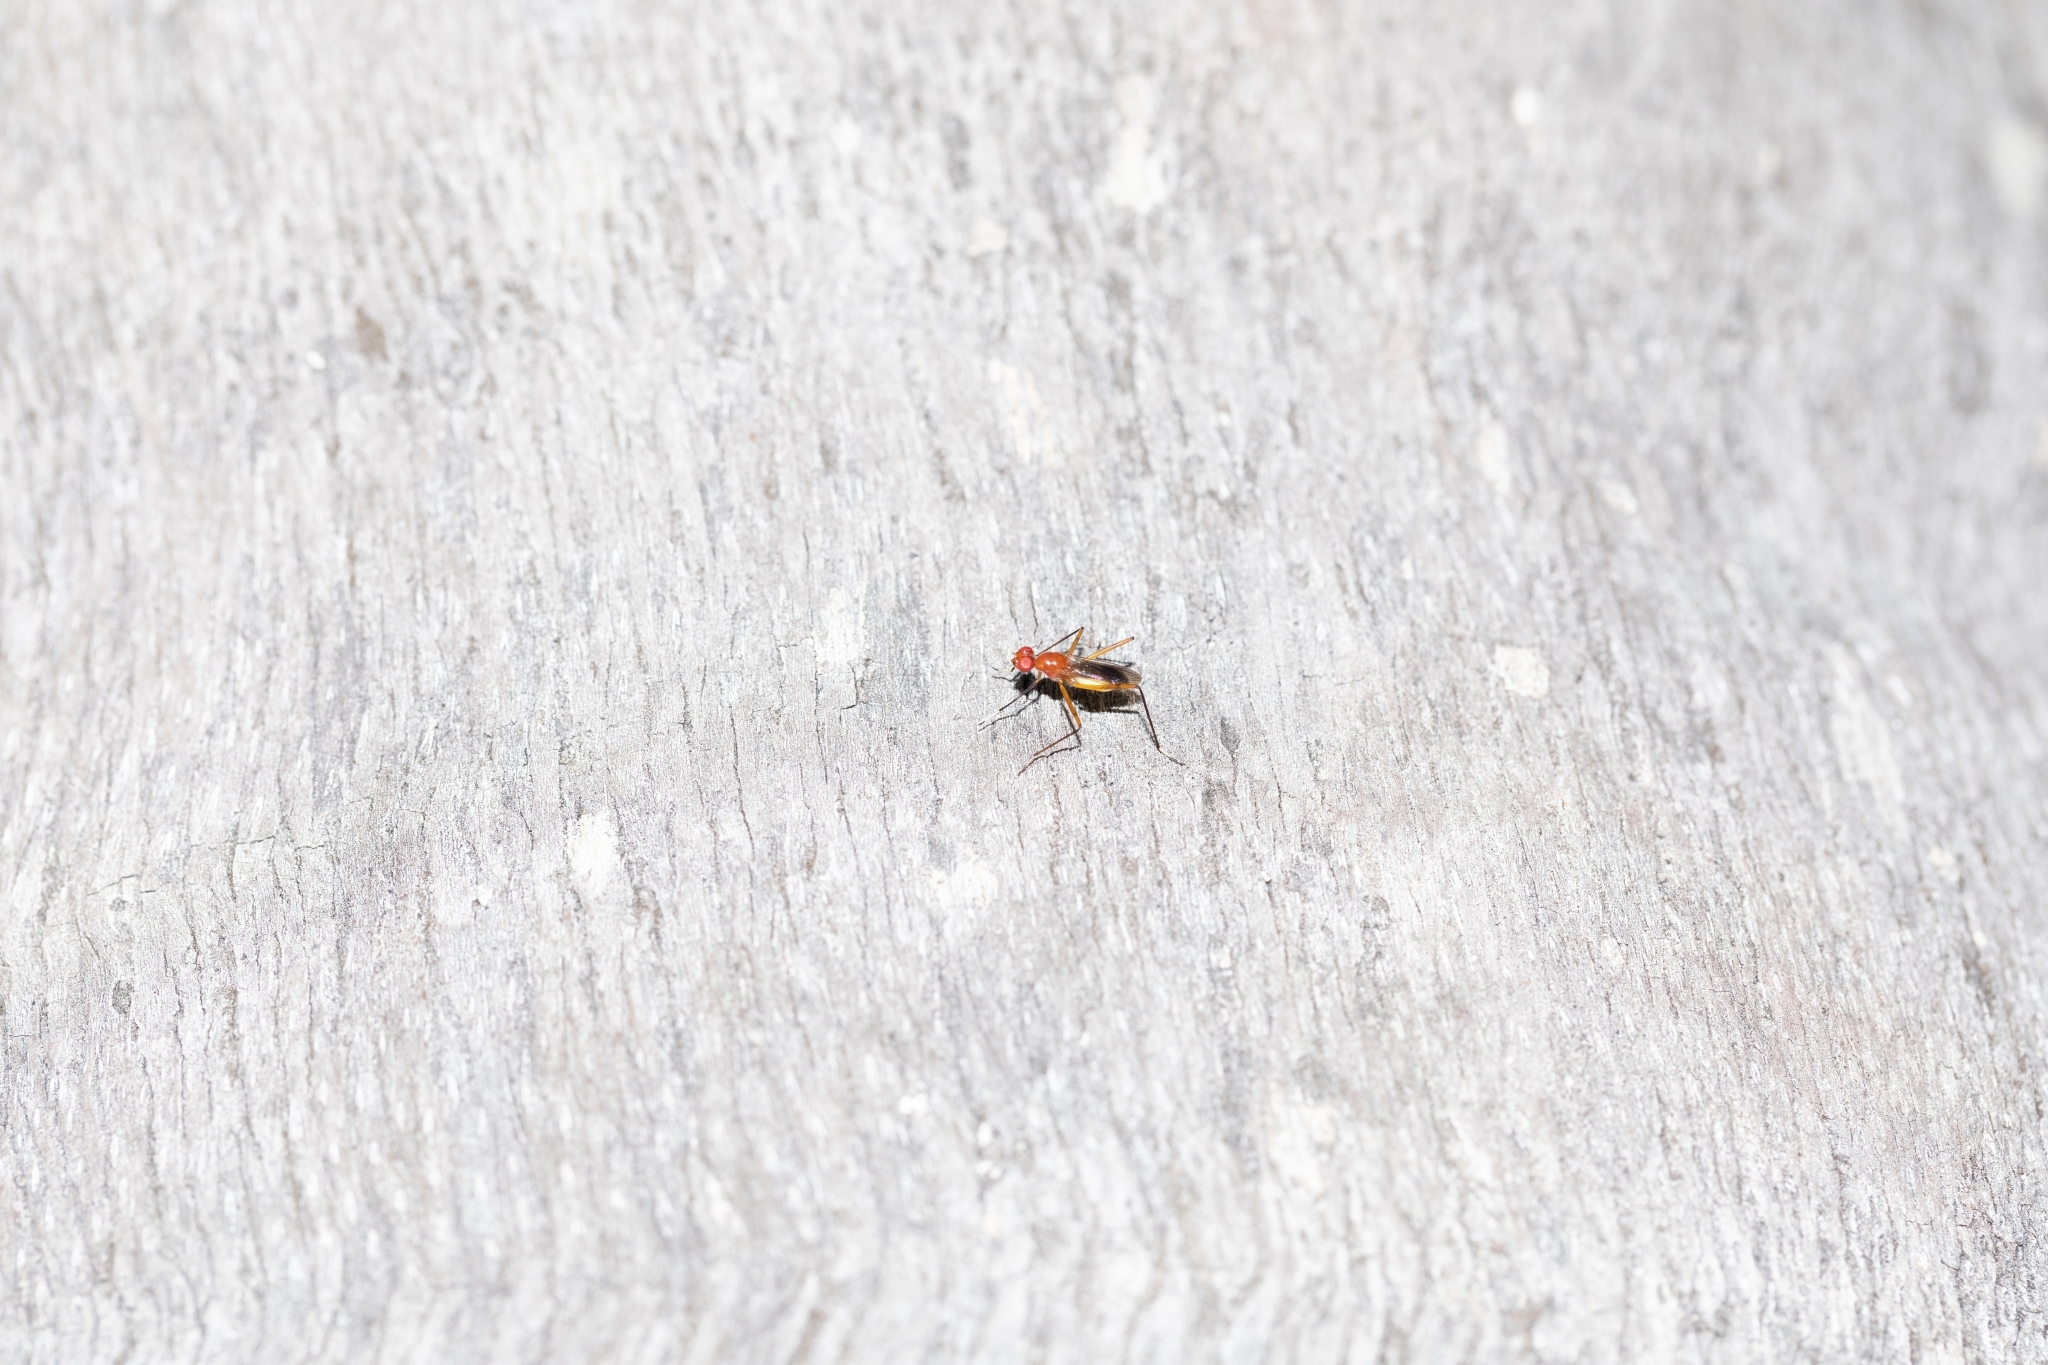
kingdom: Animalia
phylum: Arthropoda
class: Insecta
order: Diptera
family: Micropezidae
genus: Grallipeza
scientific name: Grallipeza nebulosa
